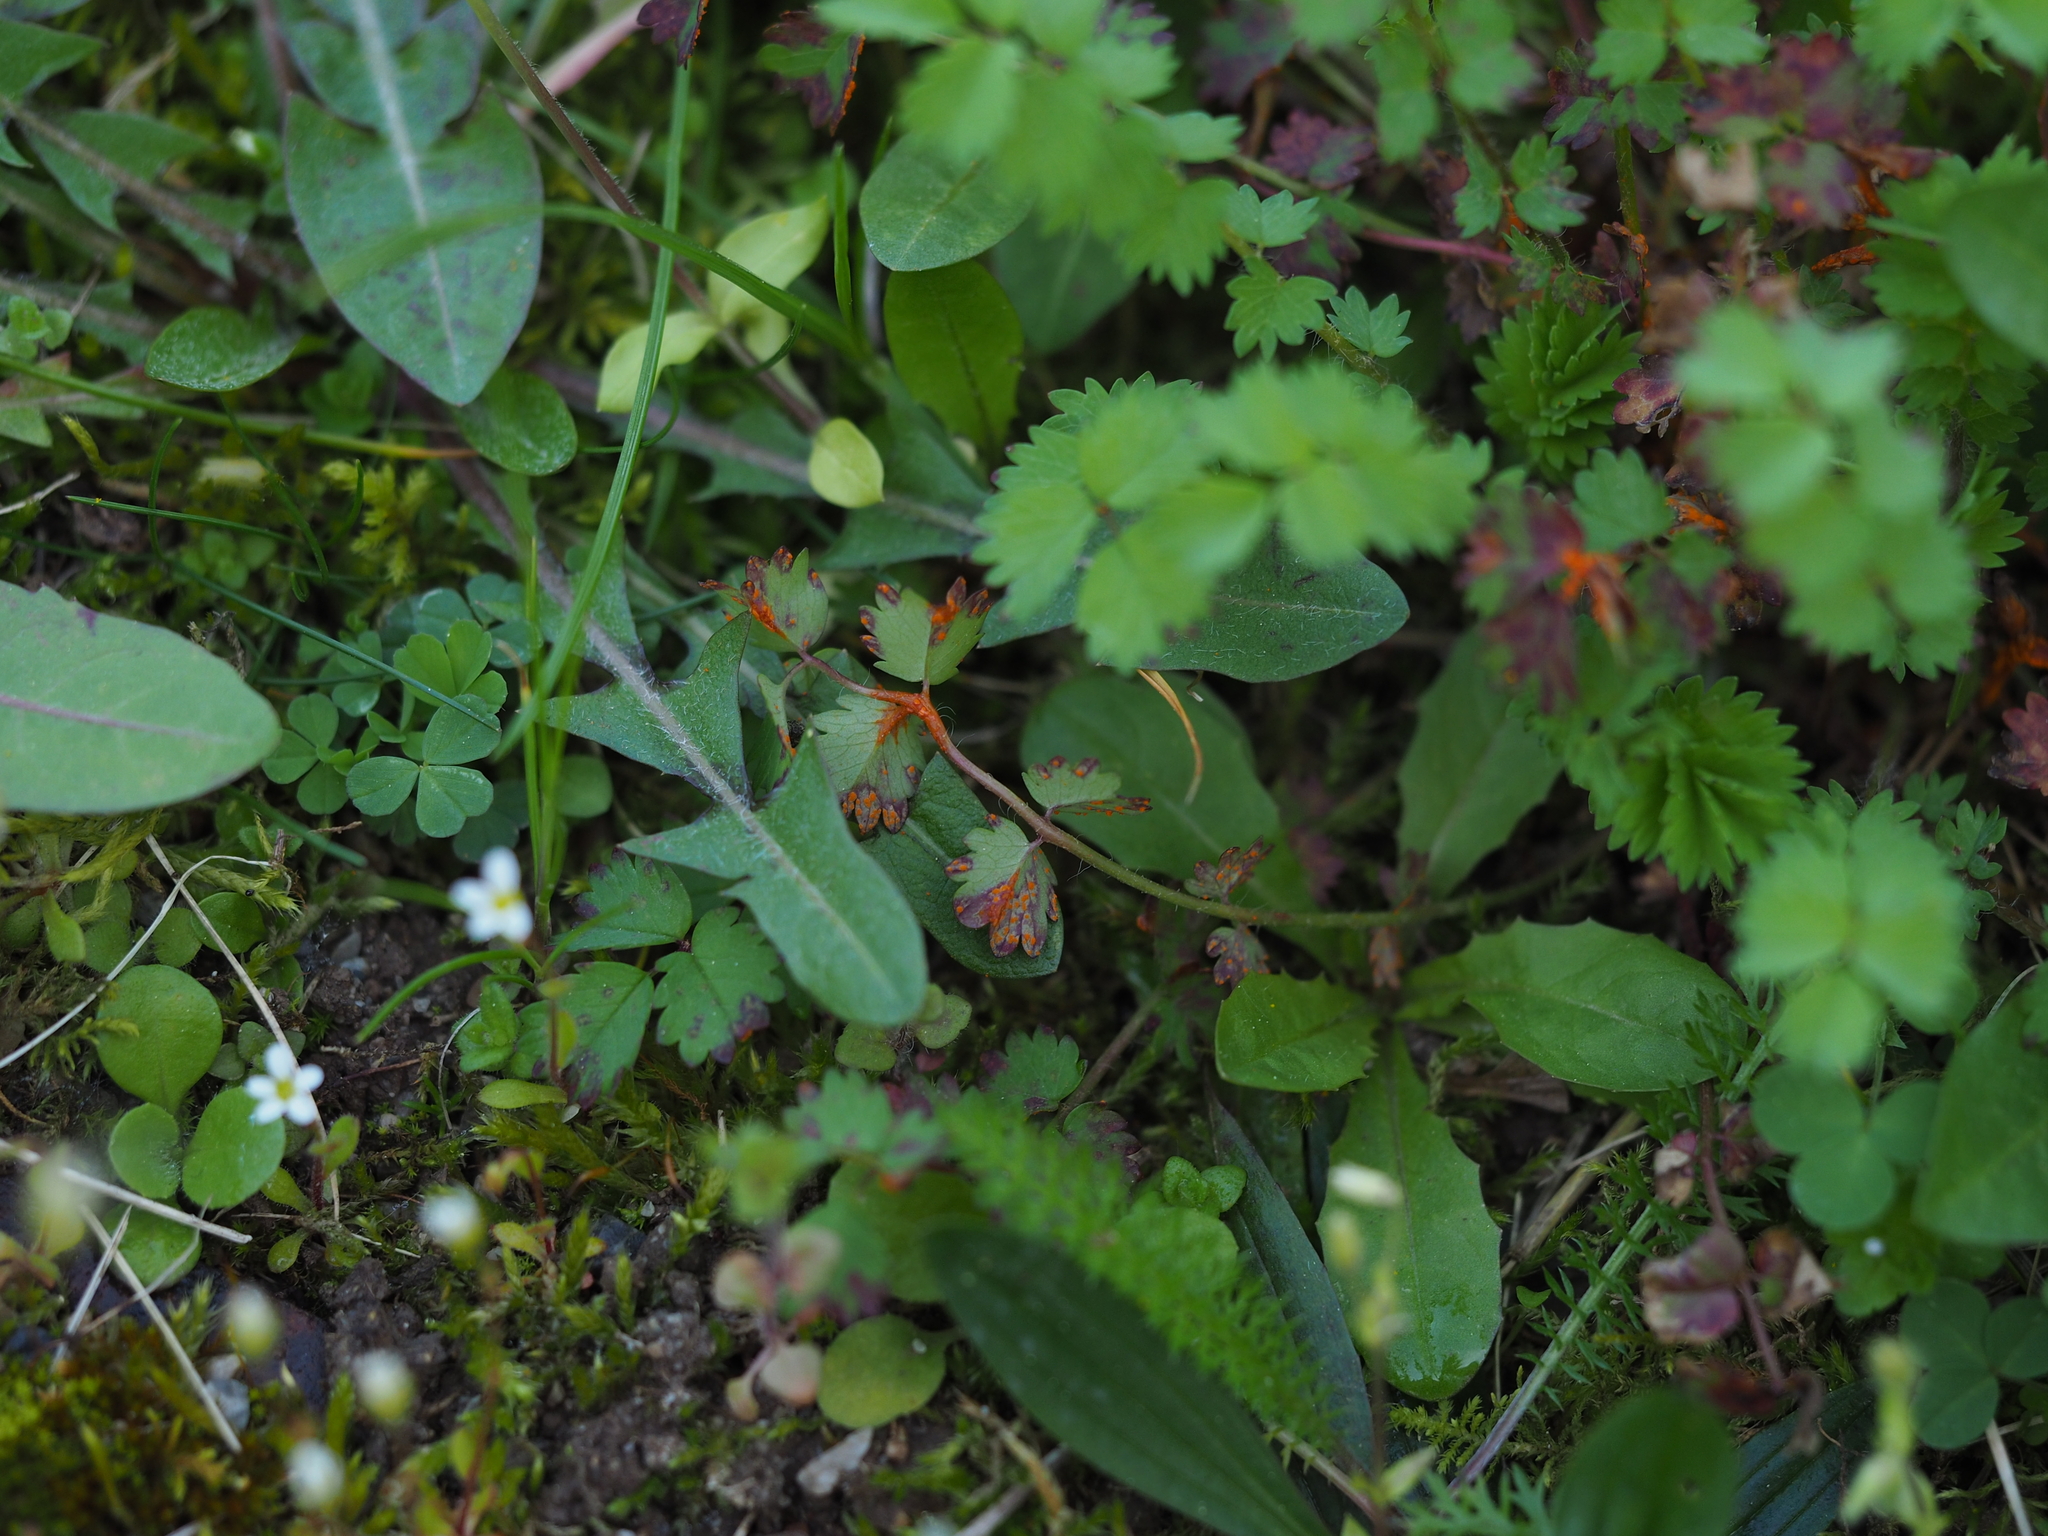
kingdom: Fungi
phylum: Basidiomycota
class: Pucciniomycetes
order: Pucciniales
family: Phragmidiaceae
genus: Phragmidium
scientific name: Phragmidium sanguisorbae
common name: Salad burnet rust
